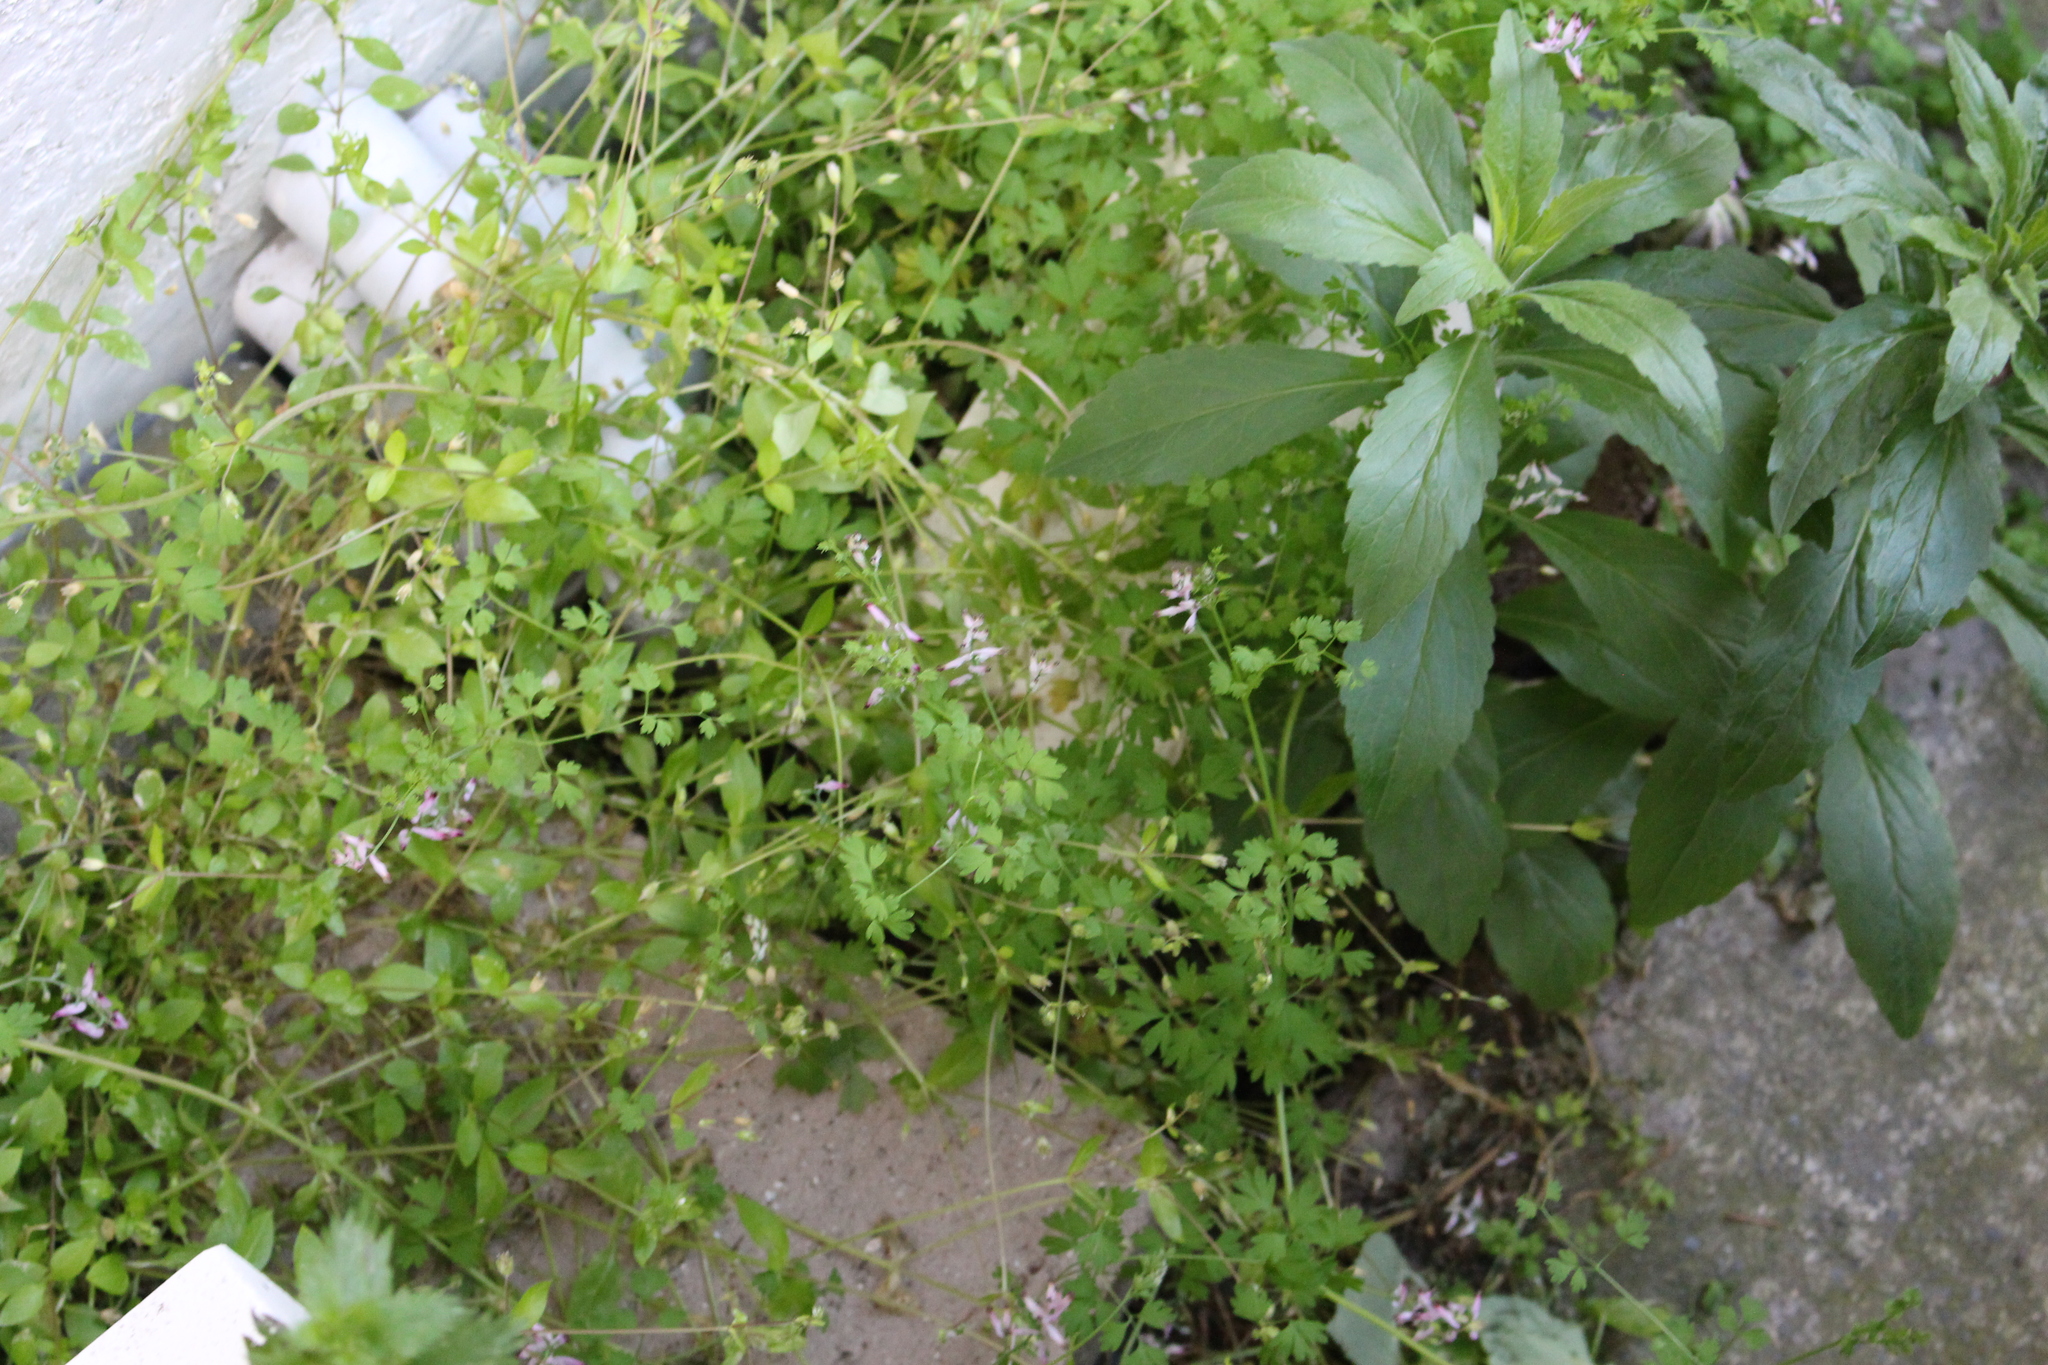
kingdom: Plantae
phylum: Tracheophyta
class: Magnoliopsida
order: Ranunculales
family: Papaveraceae
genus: Fumaria
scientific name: Fumaria muralis
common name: Common ramping-fumitory
